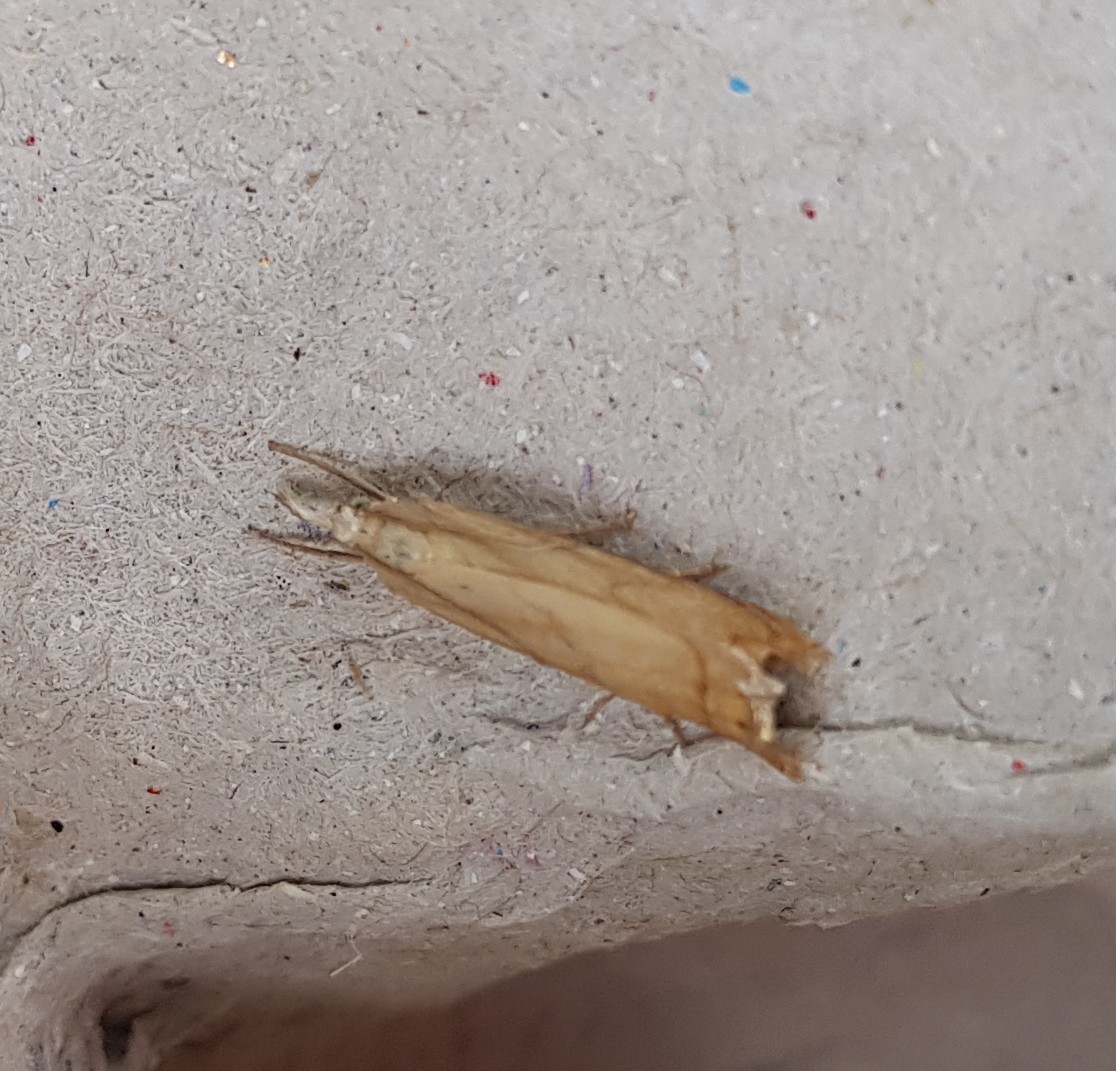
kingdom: Animalia
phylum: Arthropoda
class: Insecta
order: Lepidoptera
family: Crambidae
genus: Chrysoteuchia
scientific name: Chrysoteuchia culmella
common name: Garden grass-veneer
